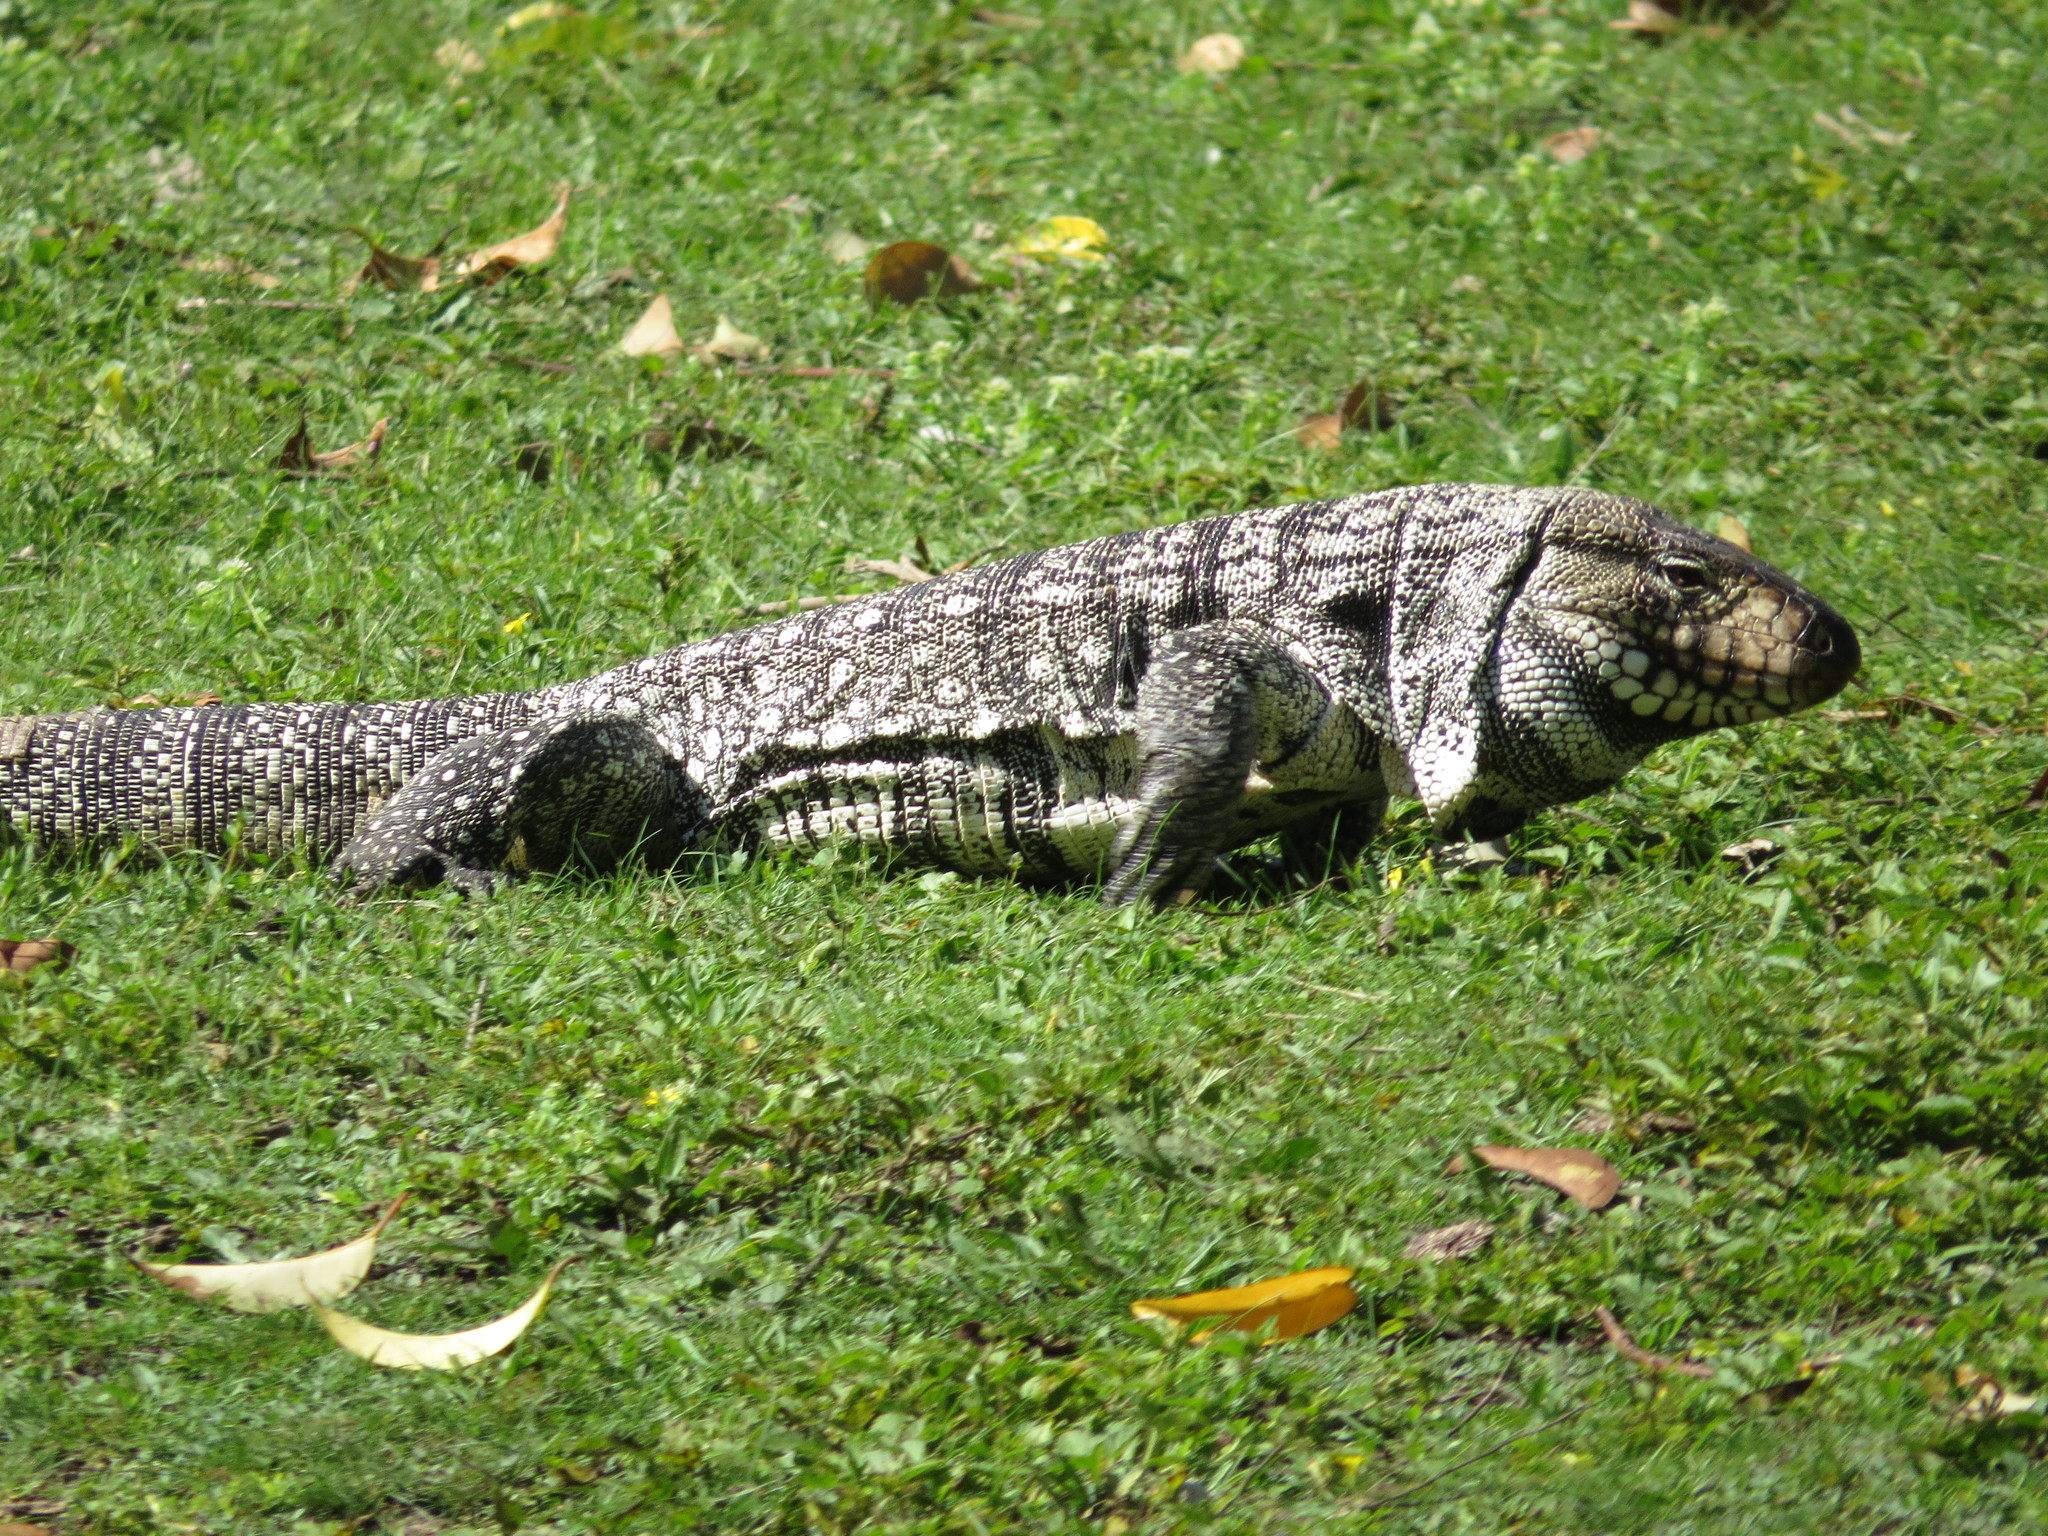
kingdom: Animalia
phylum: Chordata
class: Squamata
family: Teiidae
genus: Salvator
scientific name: Salvator merianae
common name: Argentine black and white tegu
